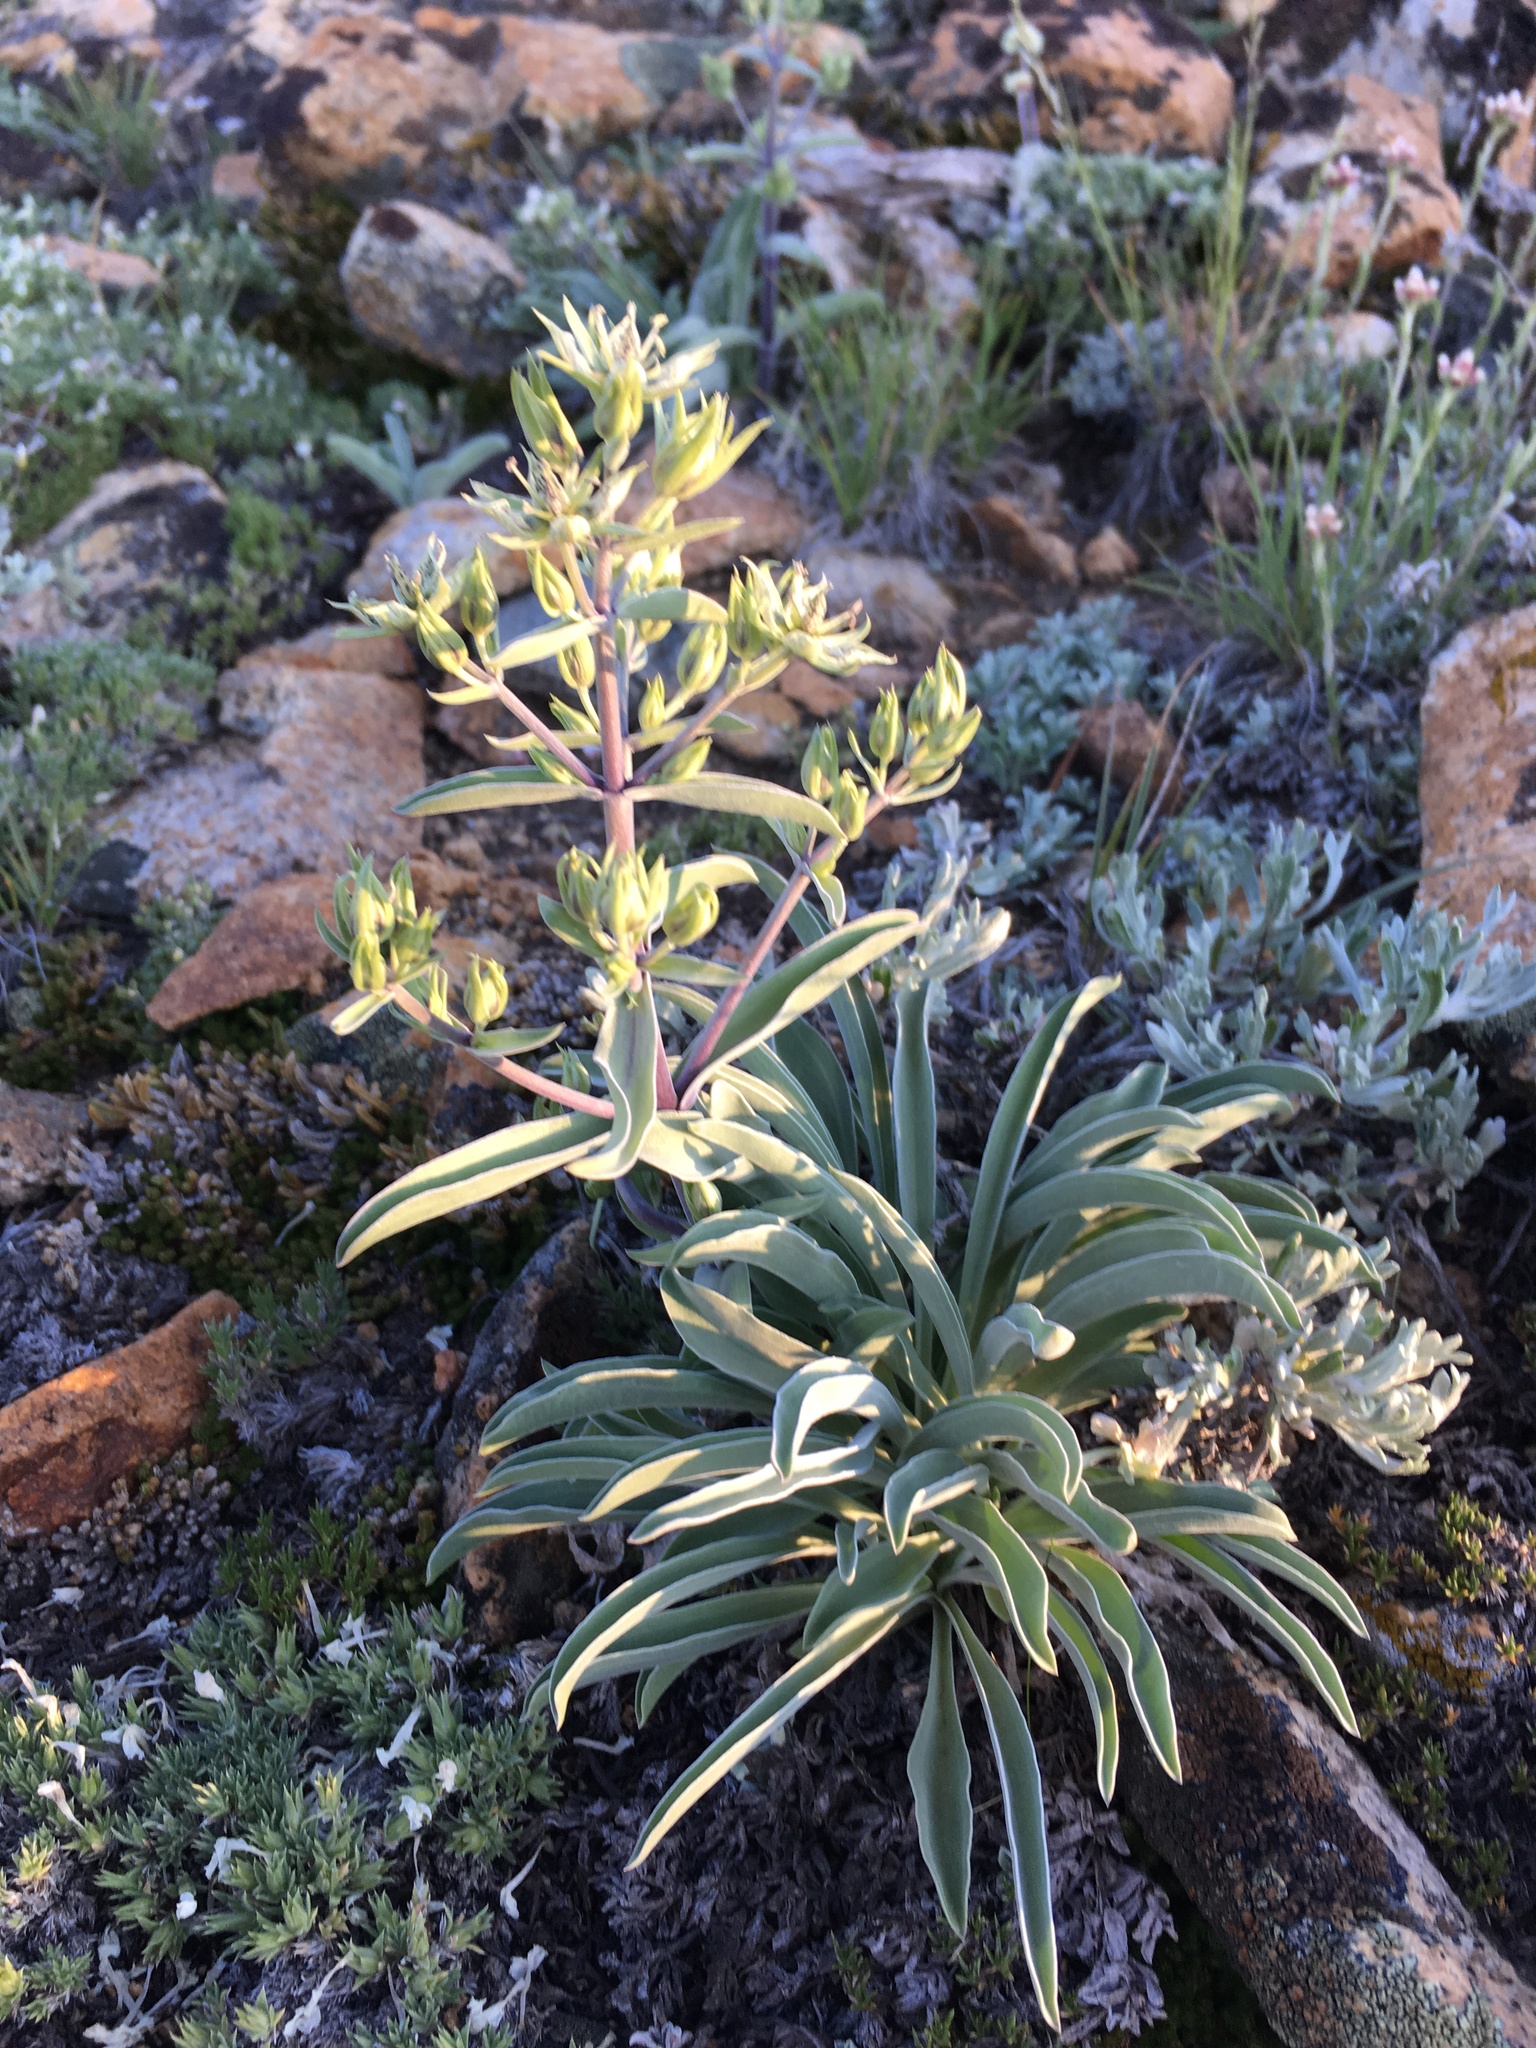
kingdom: Plantae
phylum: Tracheophyta
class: Magnoliopsida
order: Gentianales
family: Gentianaceae
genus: Frasera
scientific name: Frasera puberulenta
